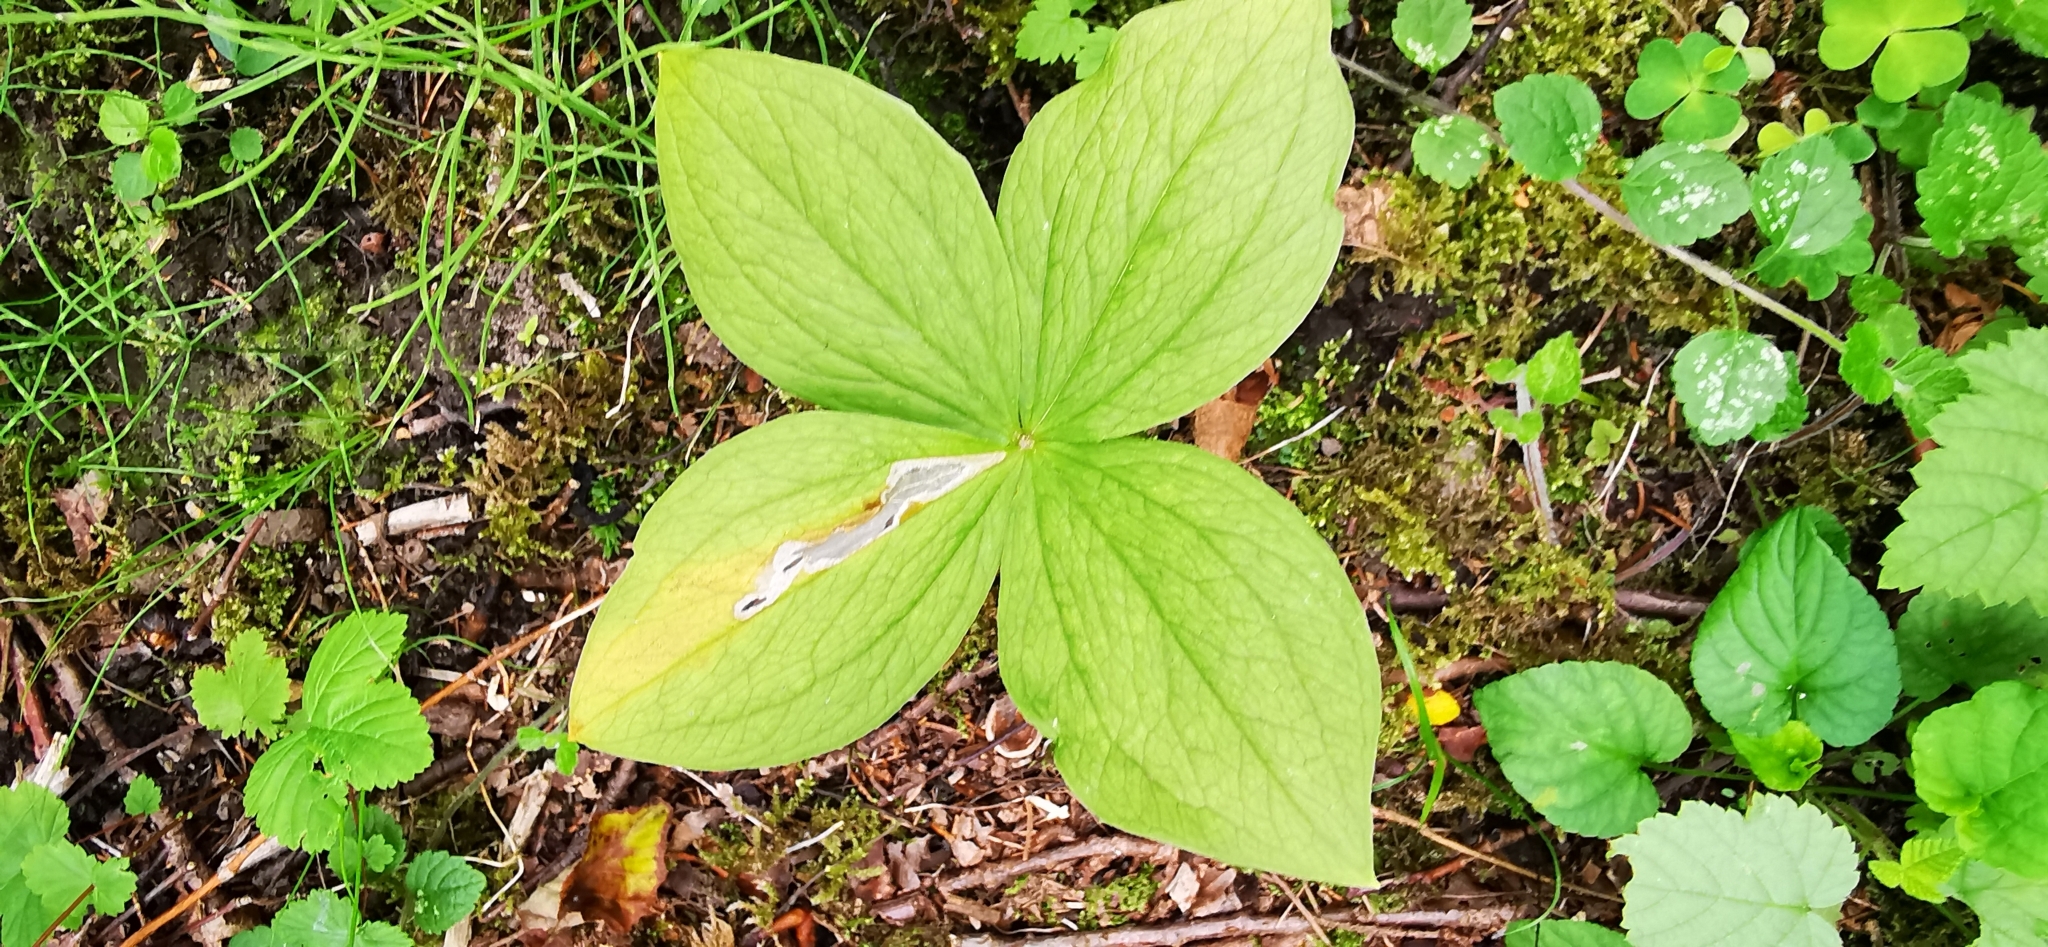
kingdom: Plantae
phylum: Tracheophyta
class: Liliopsida
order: Liliales
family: Melanthiaceae
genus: Paris
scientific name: Paris quadrifolia
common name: Herb-paris
